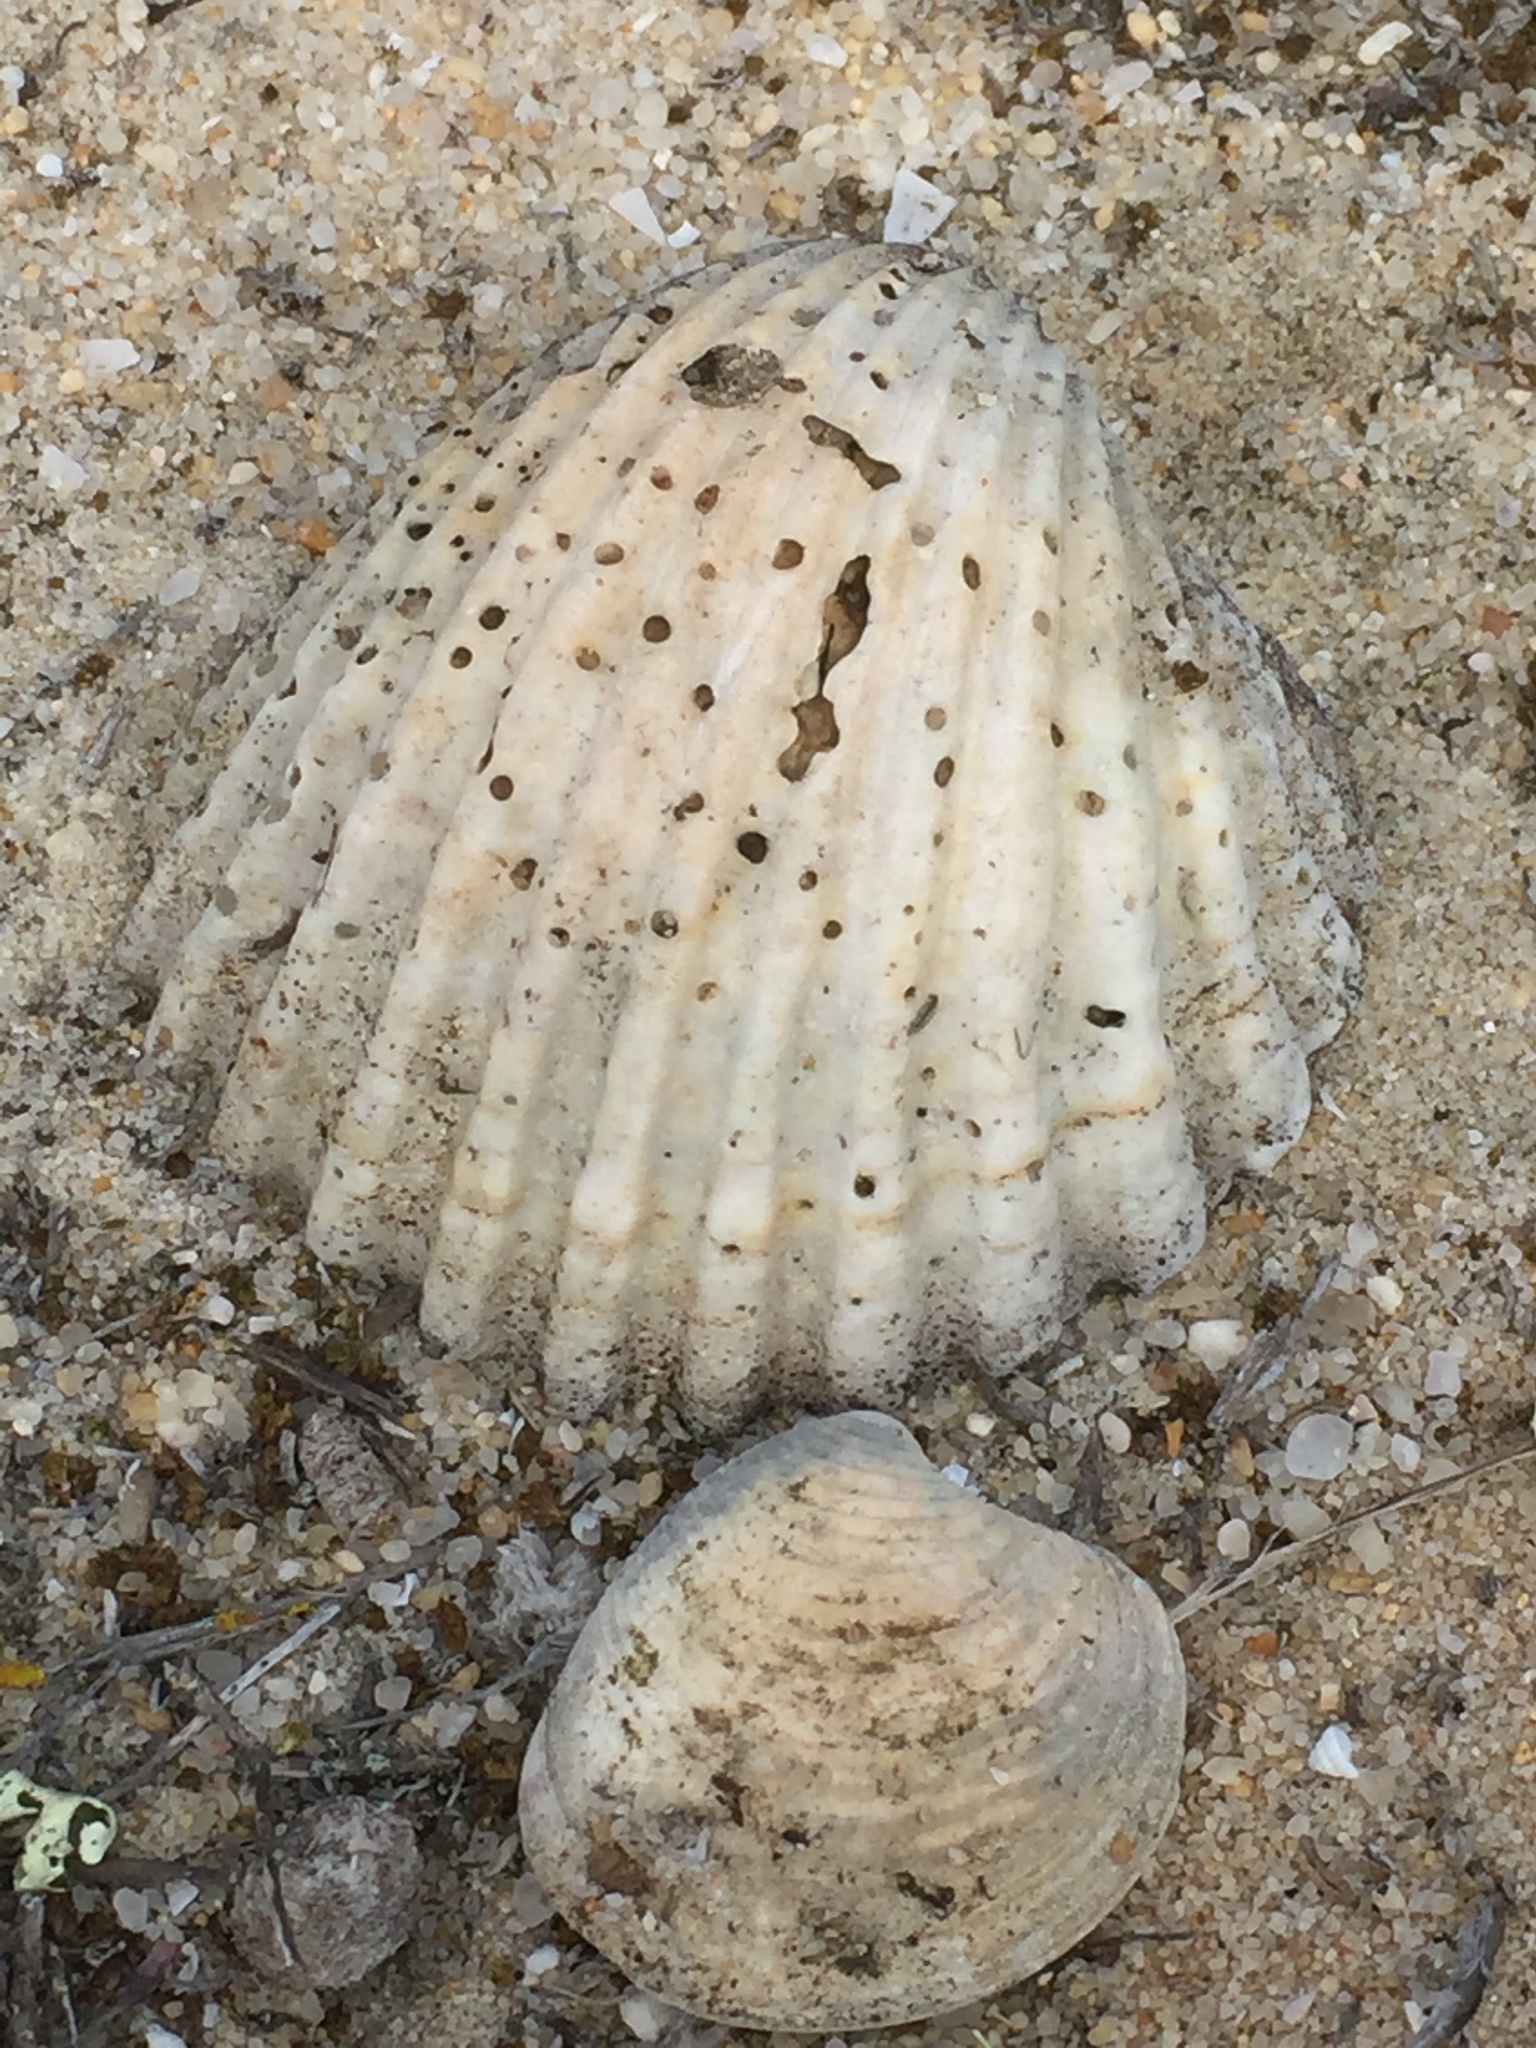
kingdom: Animalia
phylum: Mollusca
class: Bivalvia
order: Cardiida
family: Cardiidae
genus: Acanthocardia
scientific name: Acanthocardia tuberculata
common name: Rough cockle
